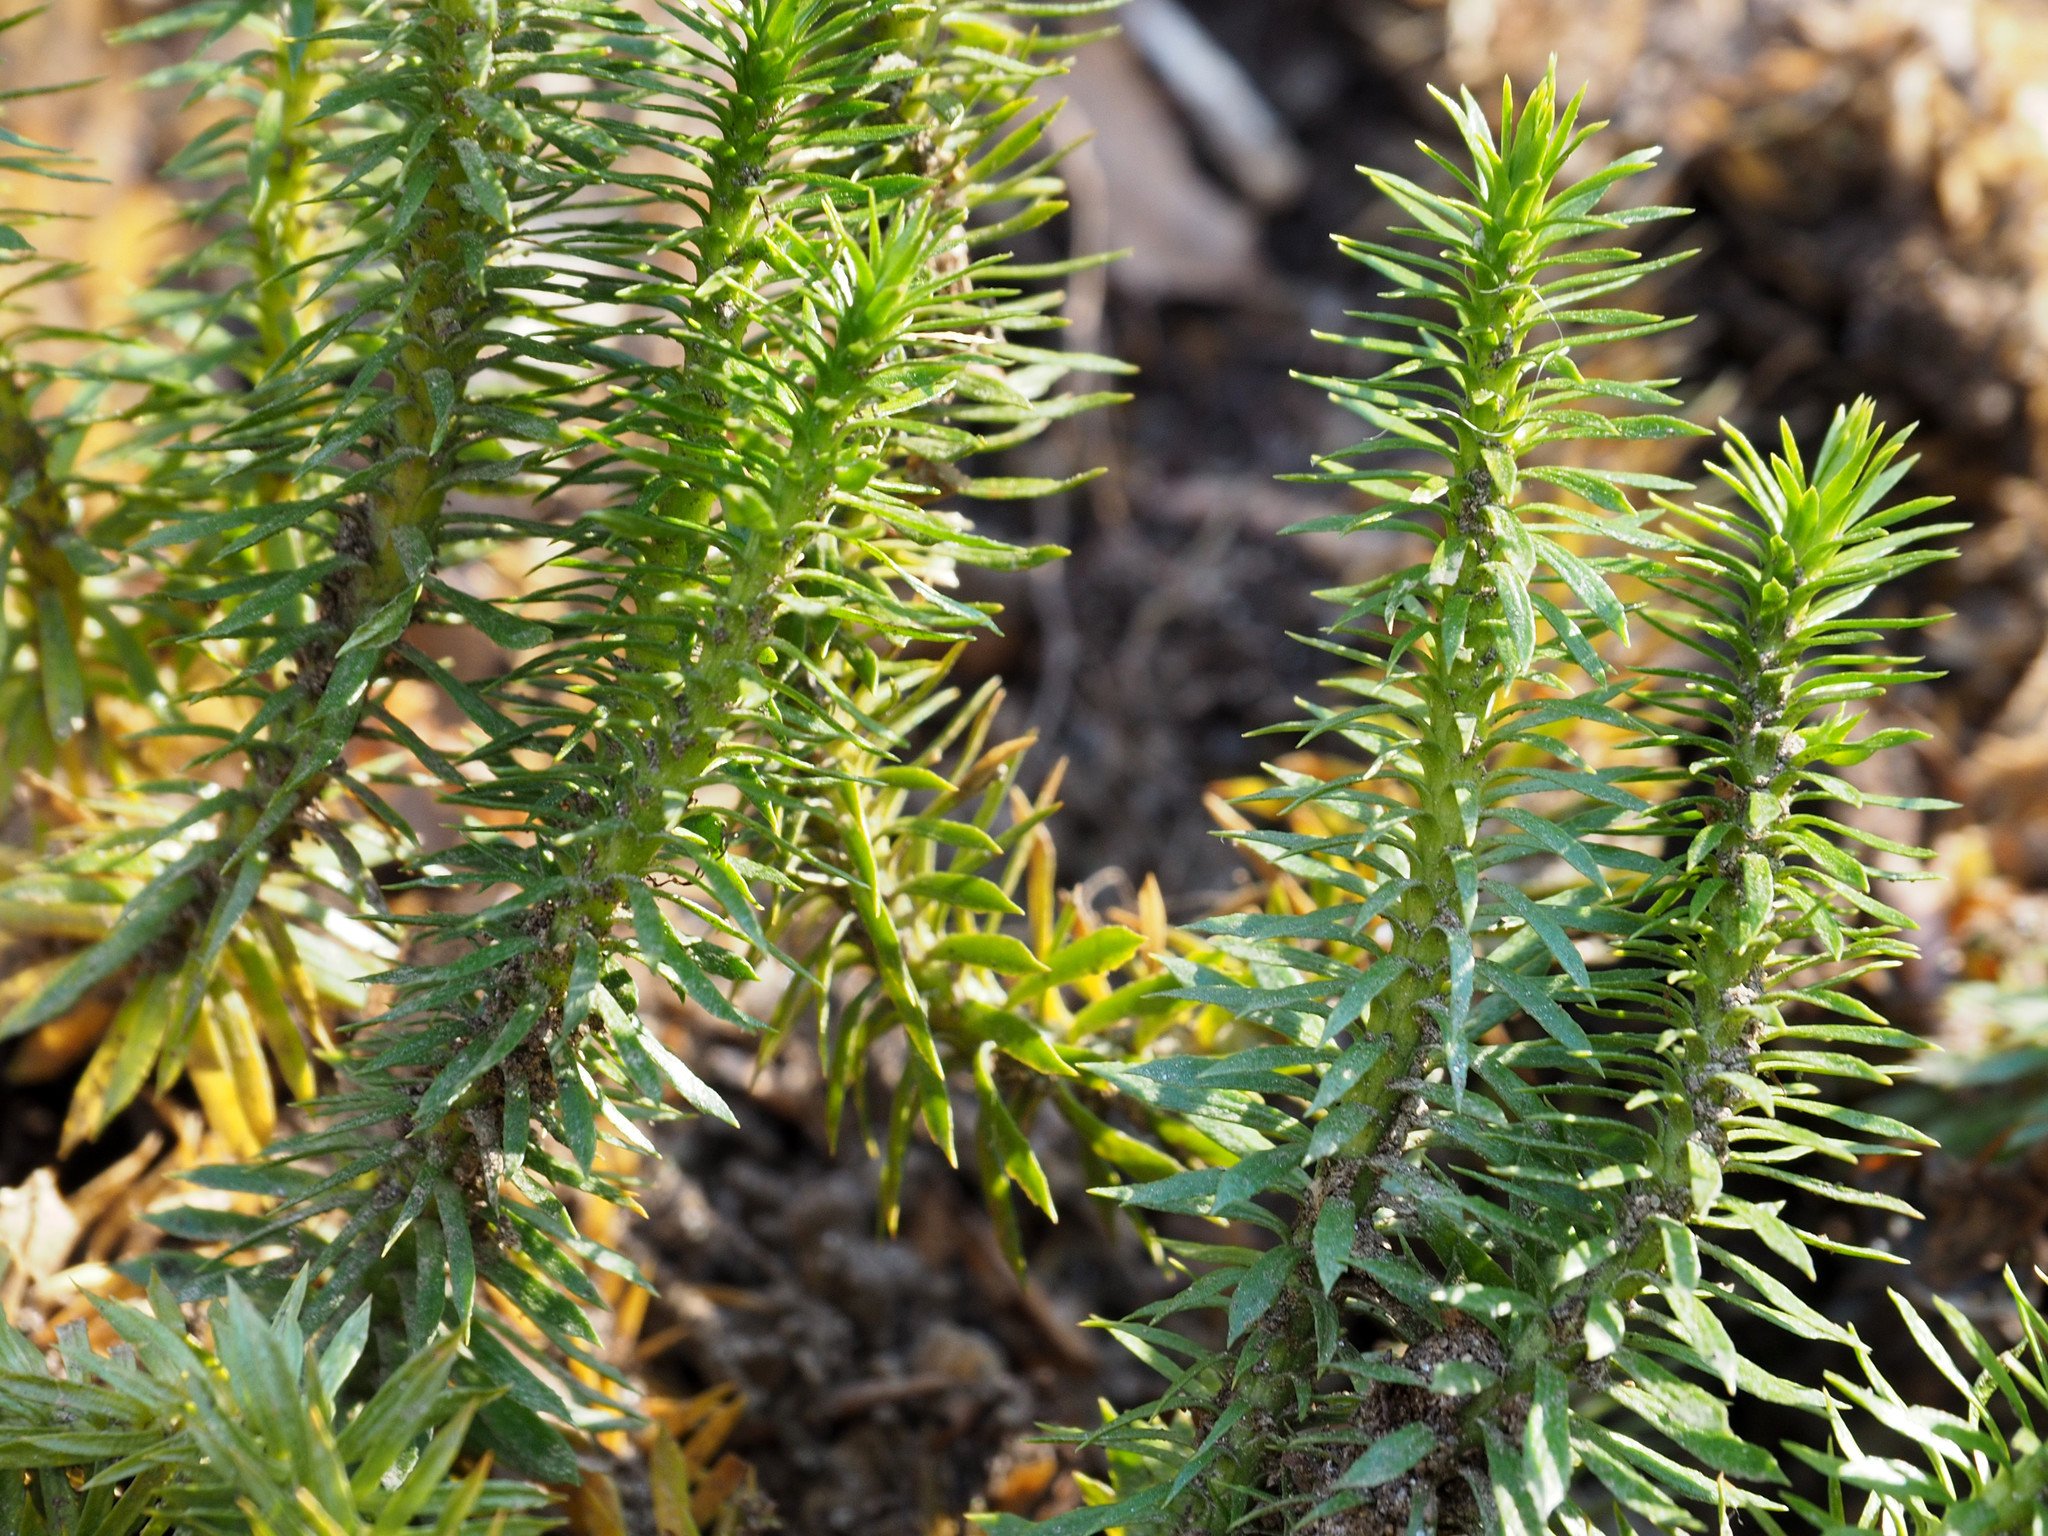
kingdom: Plantae
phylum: Tracheophyta
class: Lycopodiopsida
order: Lycopodiales
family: Lycopodiaceae
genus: Huperzia
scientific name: Huperzia lucidula
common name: Shining clubmoss
